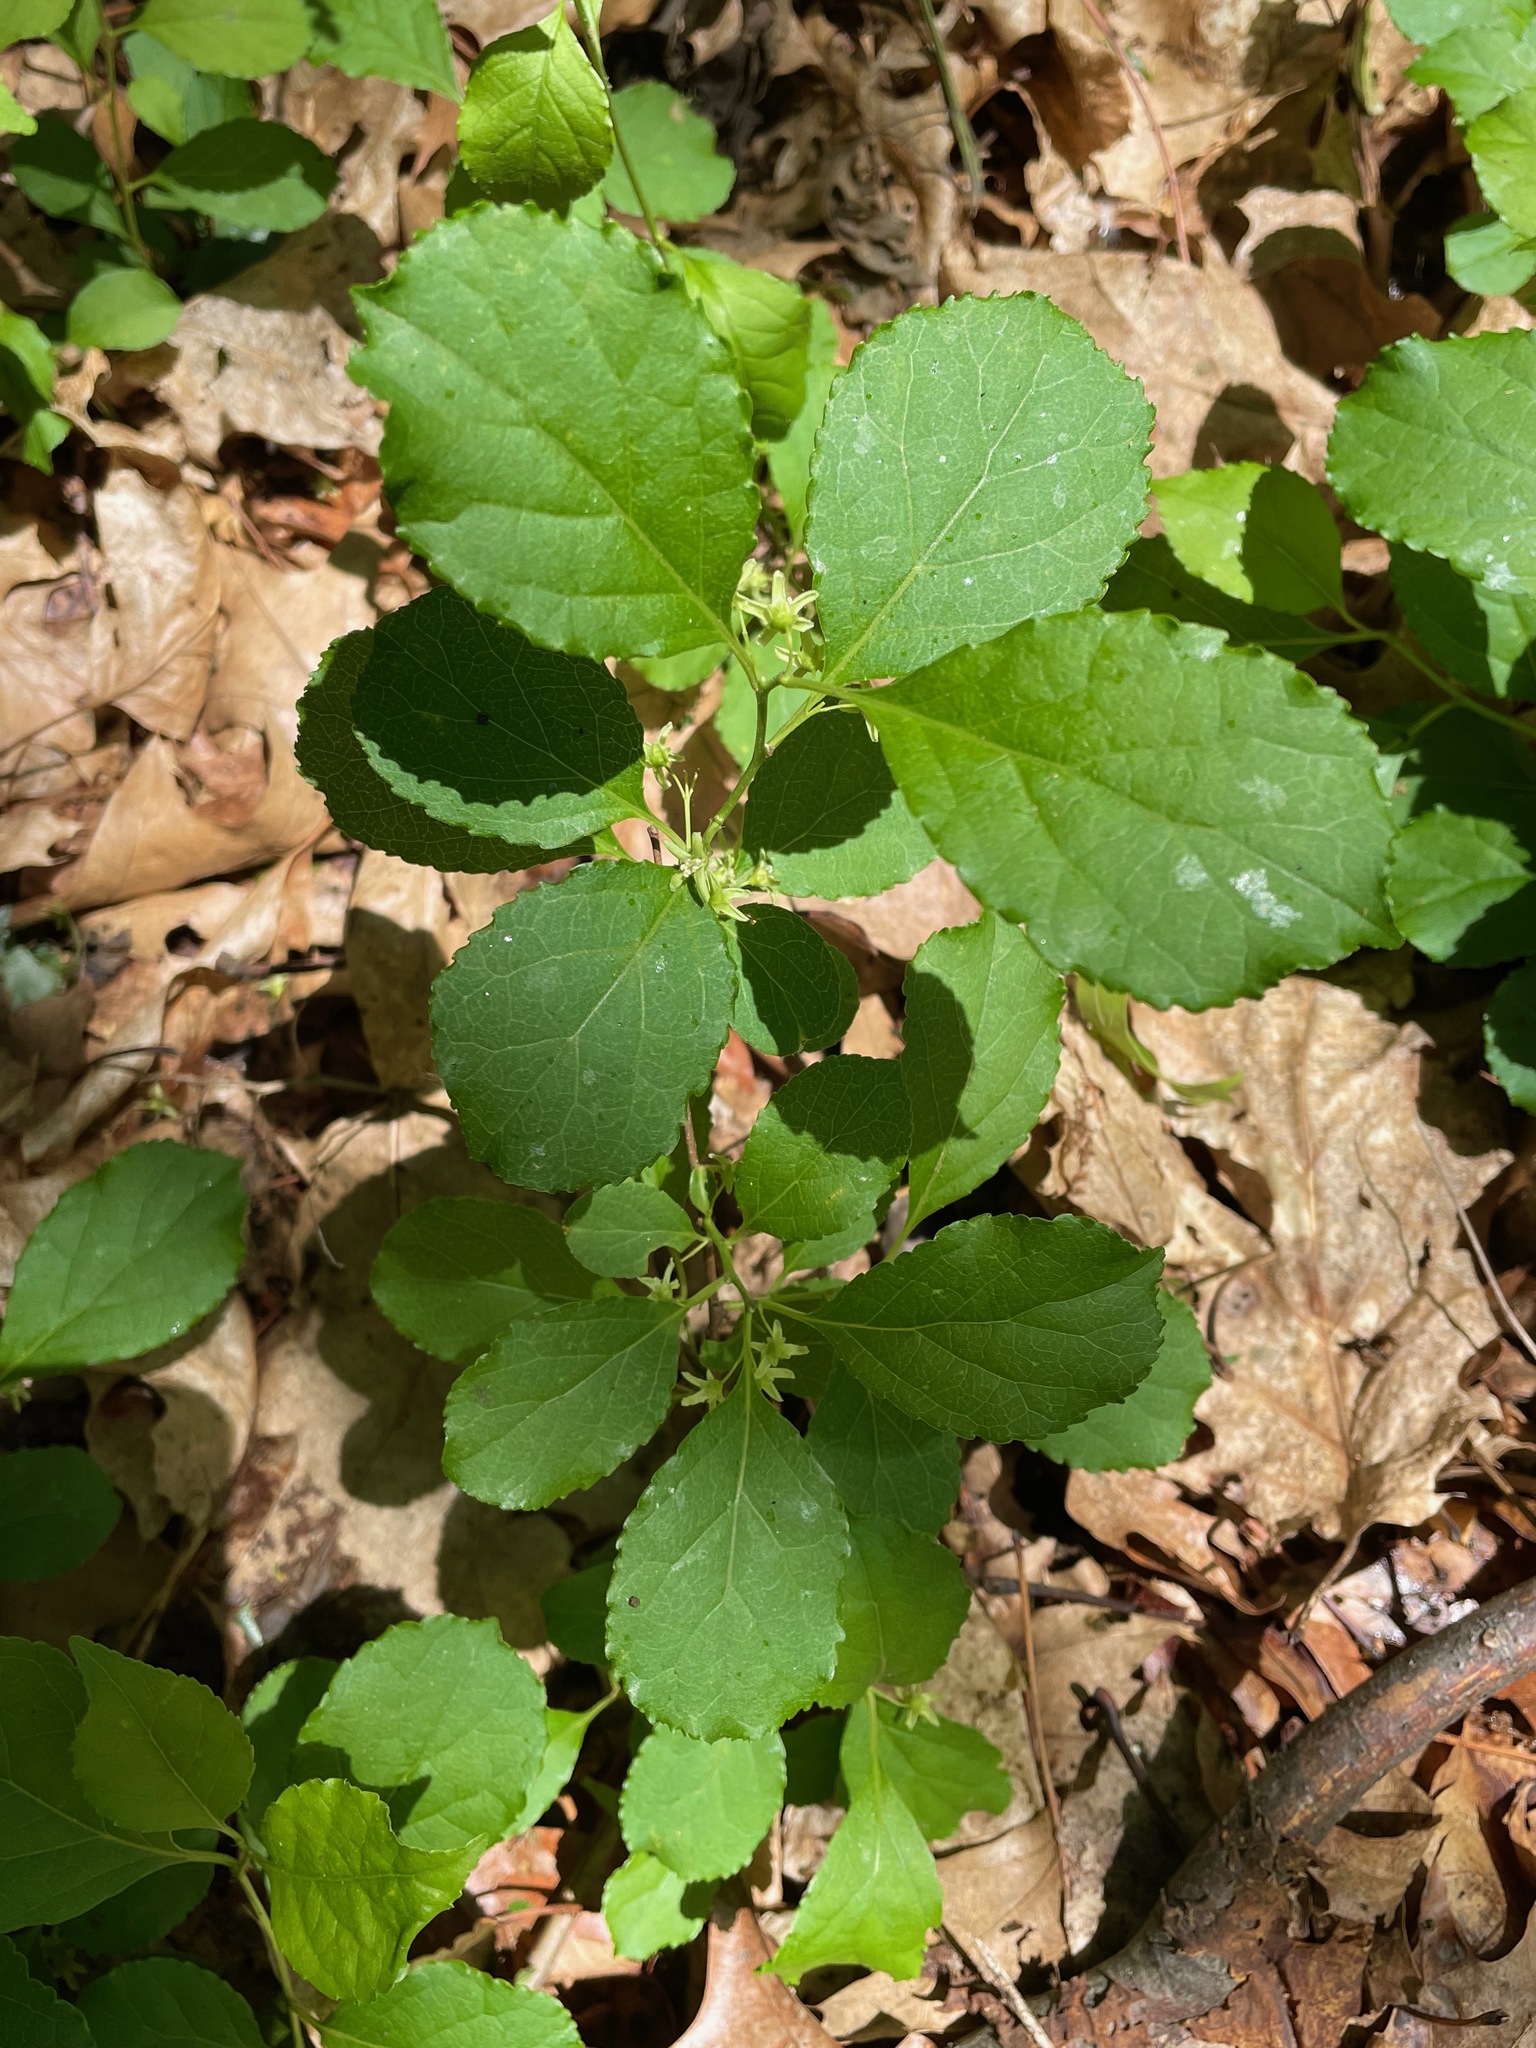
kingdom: Plantae
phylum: Tracheophyta
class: Magnoliopsida
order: Celastrales
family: Celastraceae
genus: Celastrus
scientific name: Celastrus orbiculatus
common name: Oriental bittersweet
